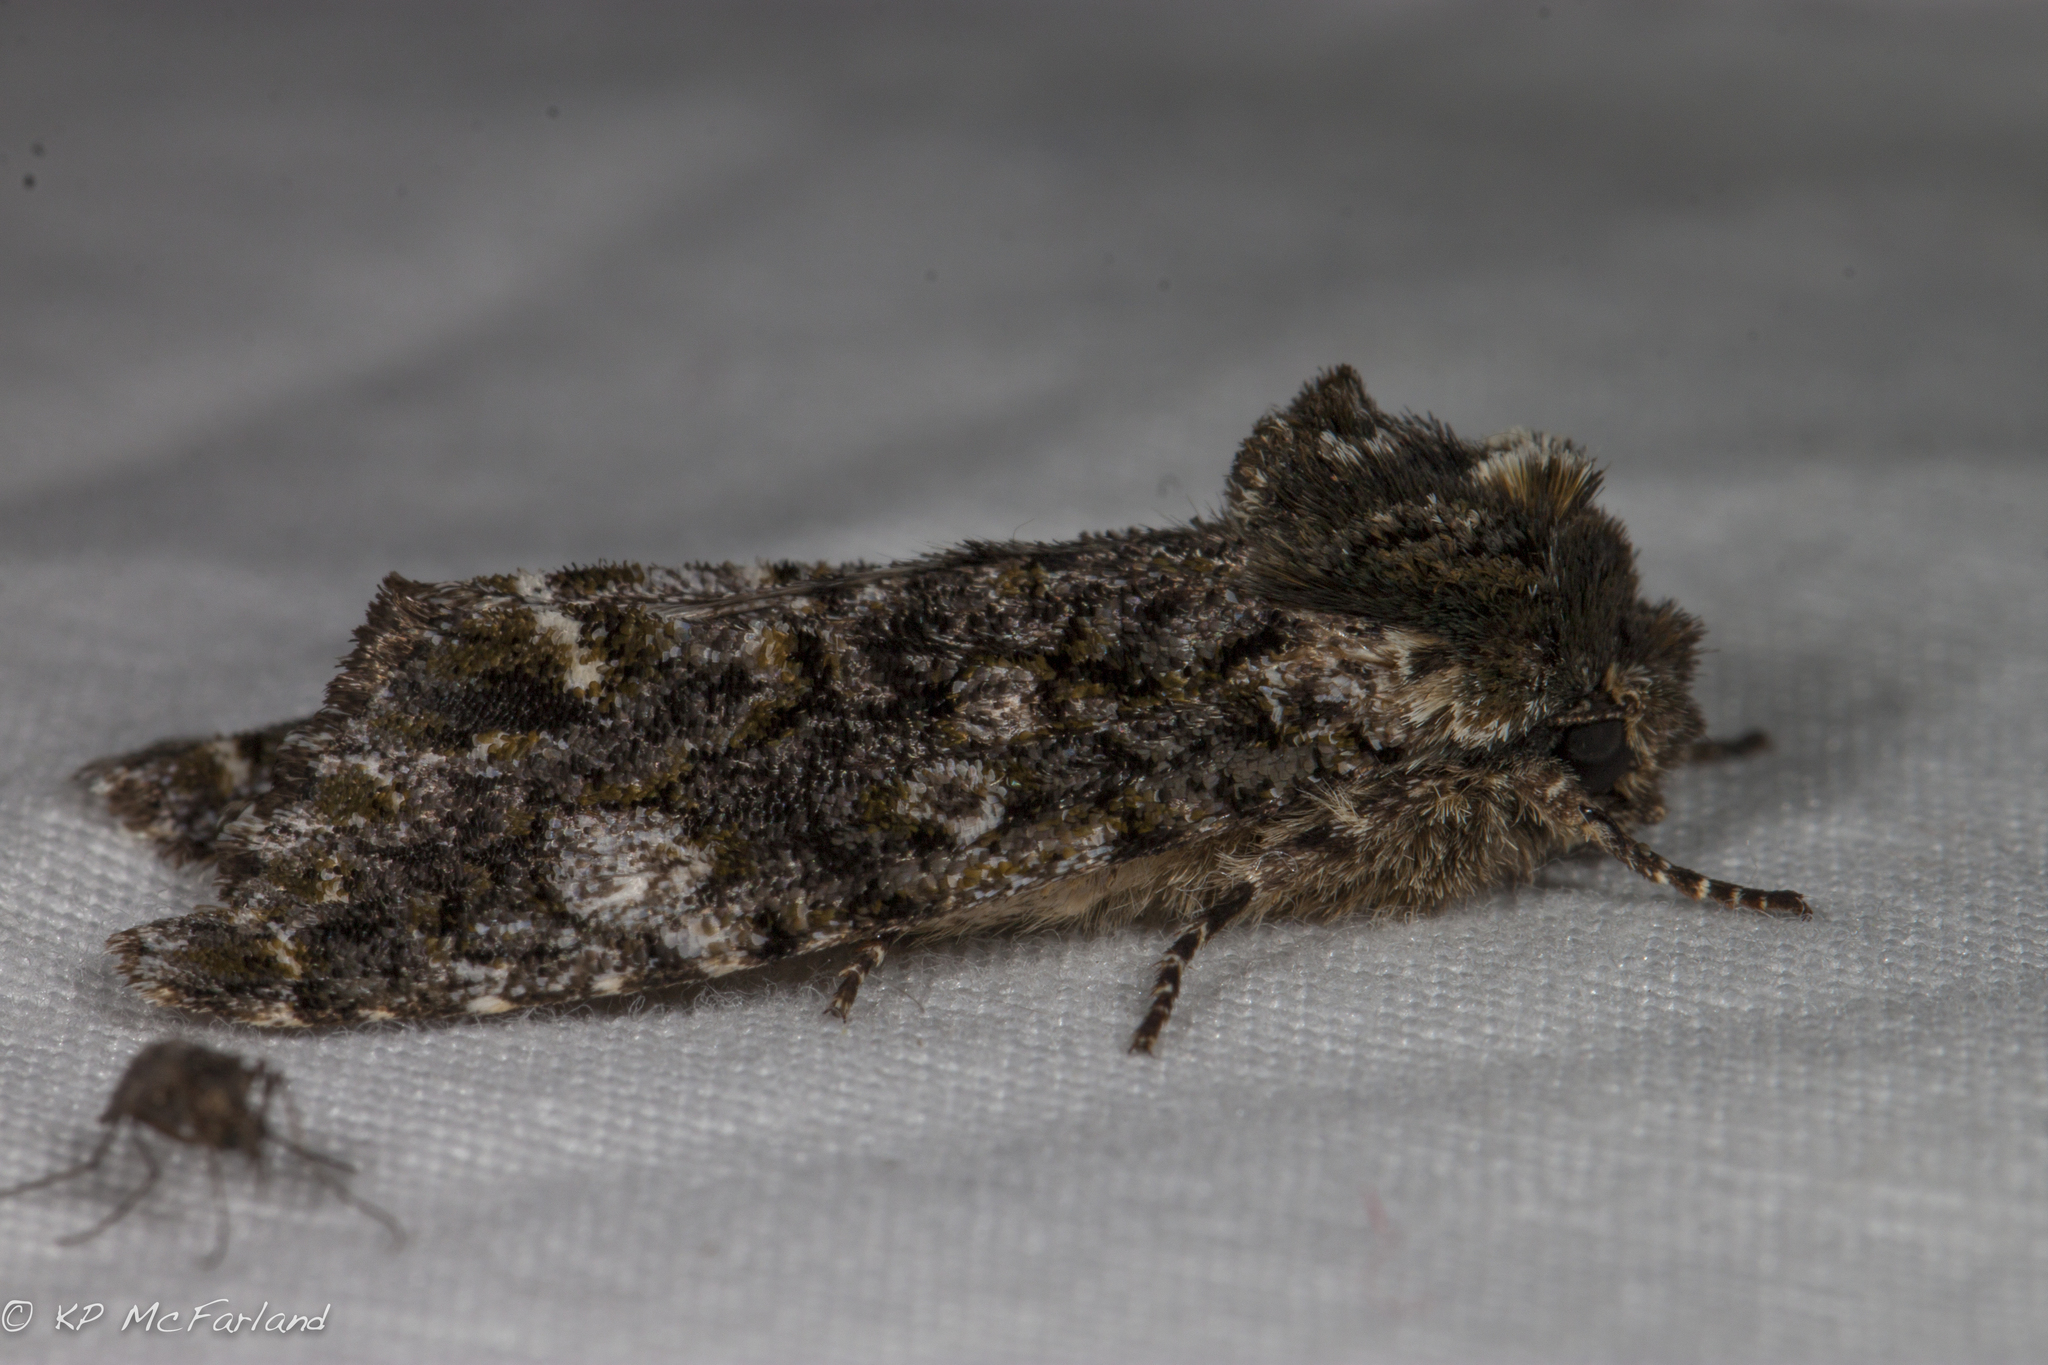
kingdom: Animalia
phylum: Arthropoda
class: Insecta
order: Lepidoptera
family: Noctuidae
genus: Psaphida
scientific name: Psaphida grotei
